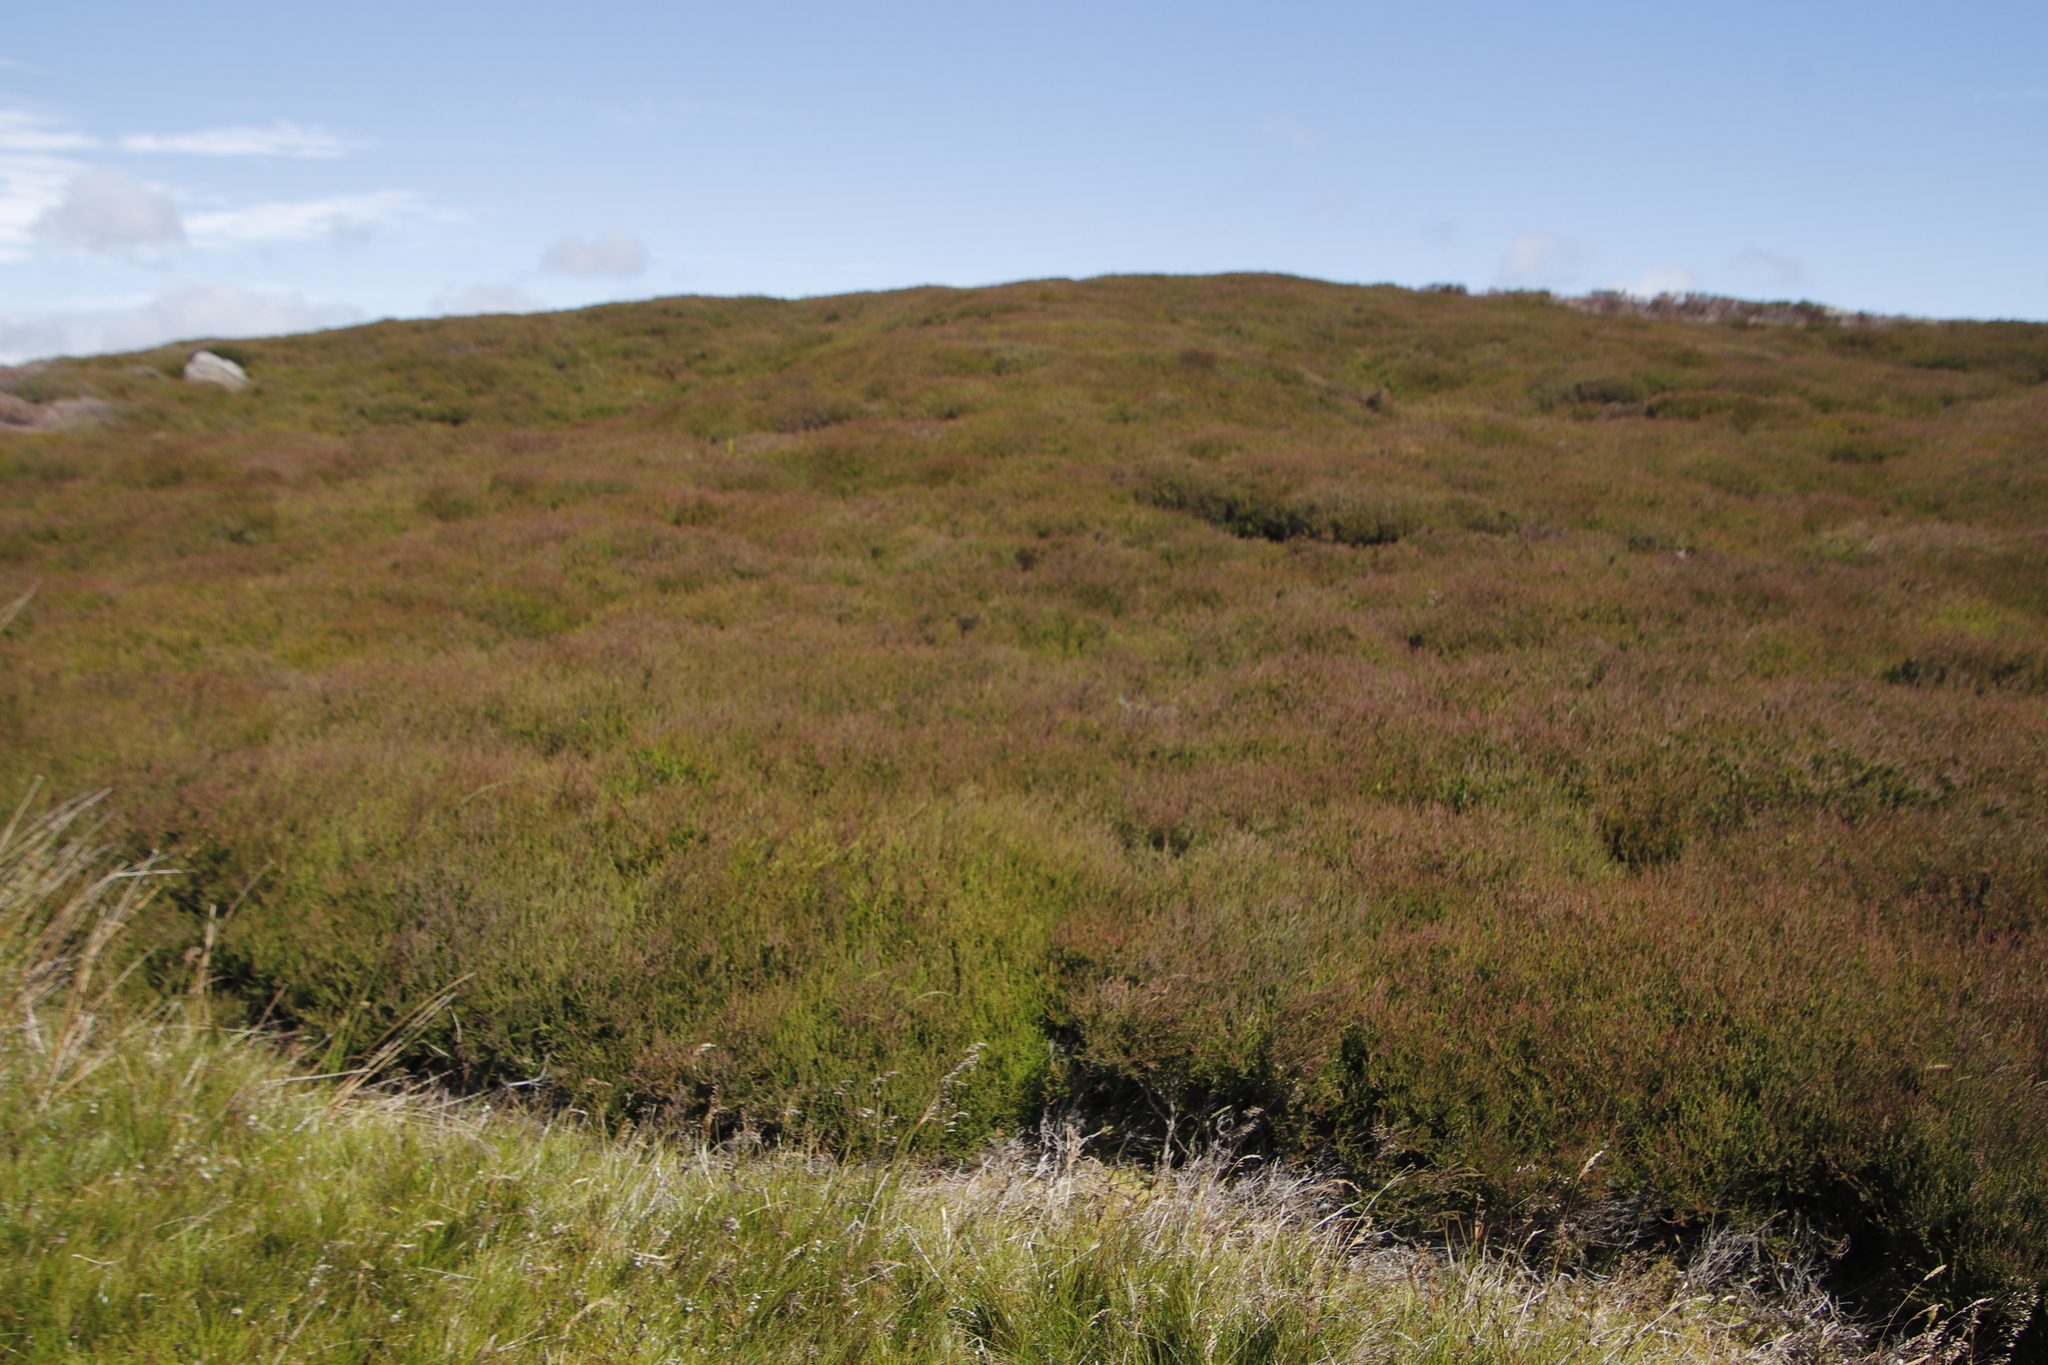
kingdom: Plantae
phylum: Tracheophyta
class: Magnoliopsida
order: Ericales
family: Ericaceae
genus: Calluna
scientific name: Calluna vulgaris
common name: Heather
